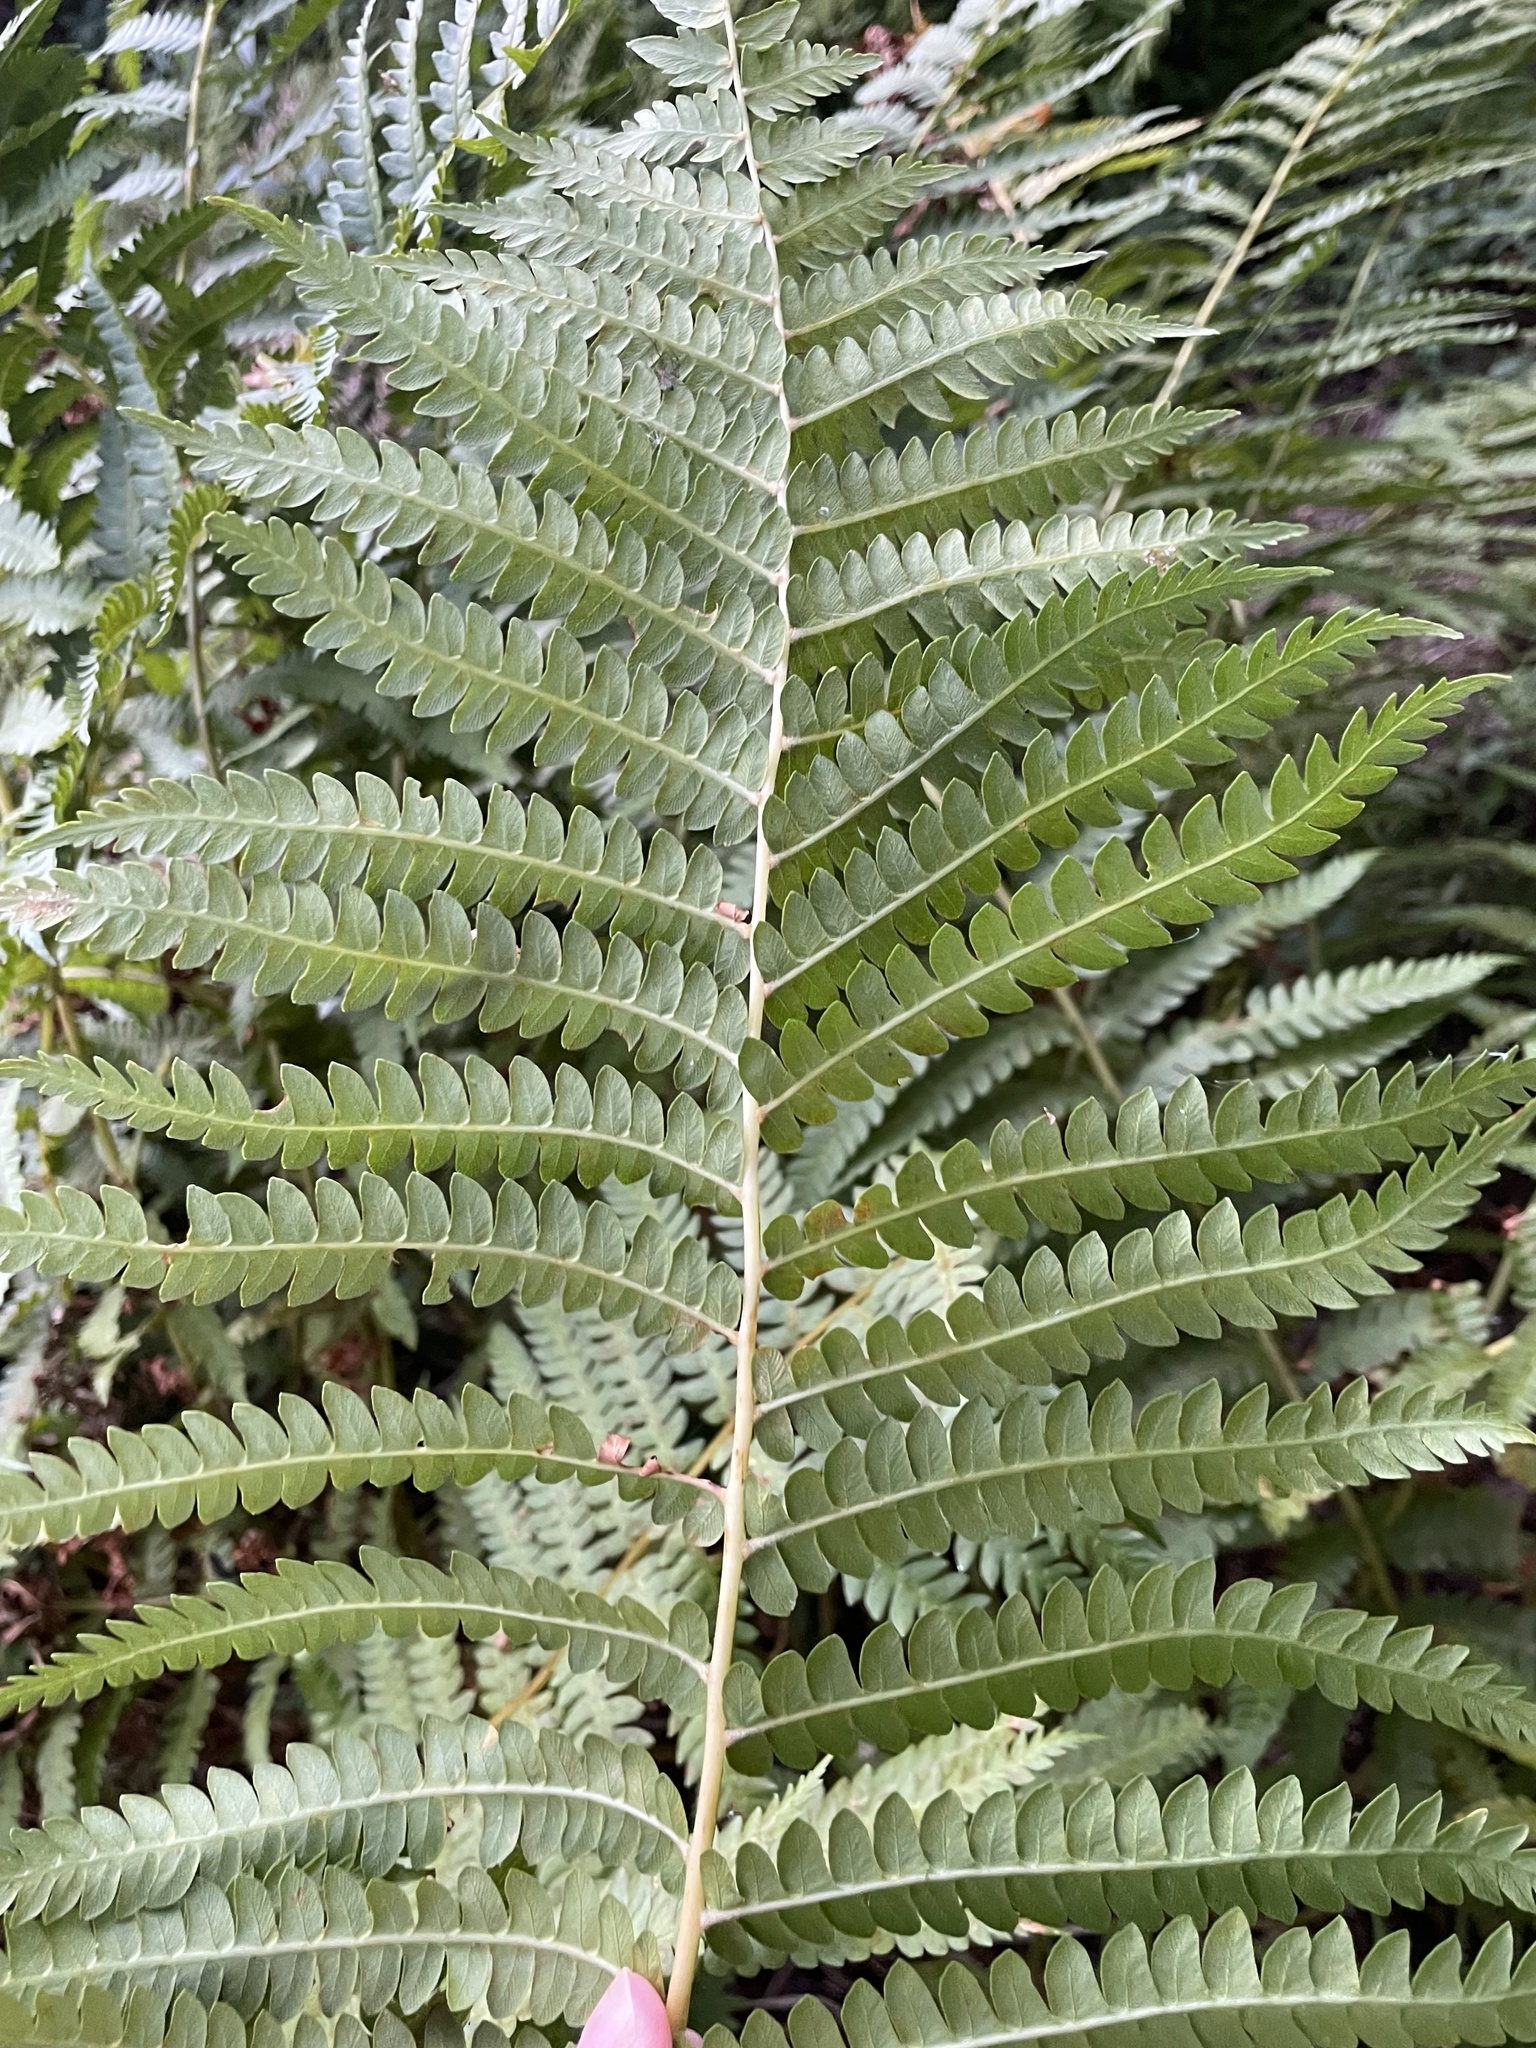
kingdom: Plantae
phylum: Tracheophyta
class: Polypodiopsida
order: Polypodiales
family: Onocleaceae
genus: Matteuccia
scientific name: Matteuccia struthiopteris
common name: Ostrich fern
